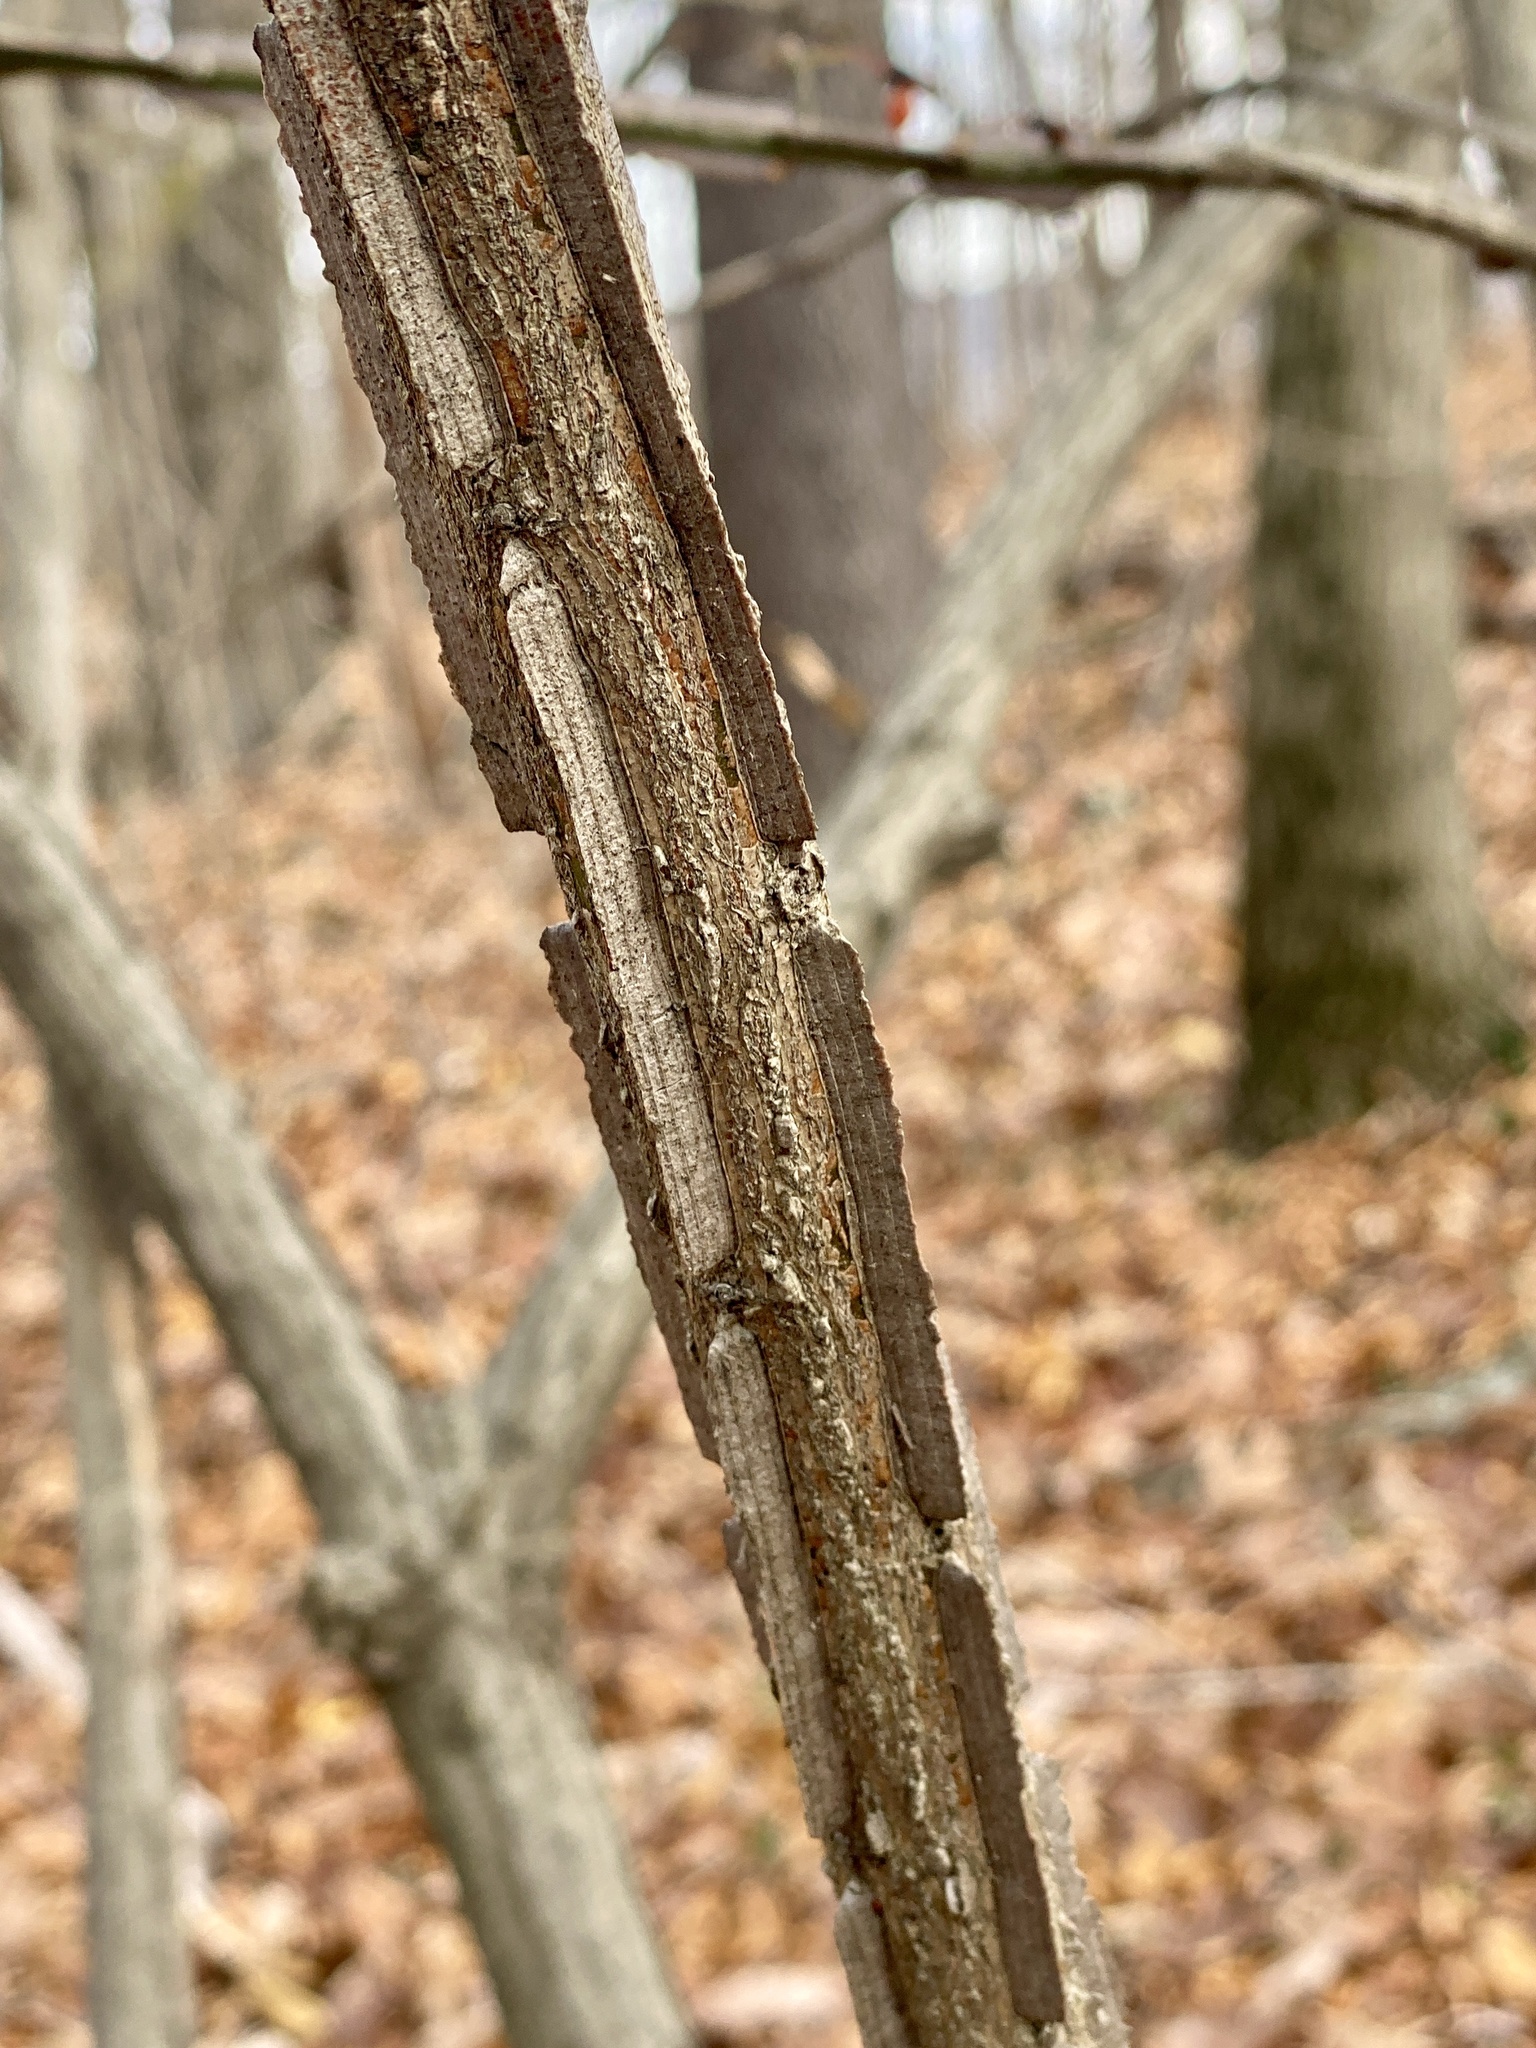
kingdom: Plantae
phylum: Tracheophyta
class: Magnoliopsida
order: Celastrales
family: Celastraceae
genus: Euonymus
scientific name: Euonymus alatus
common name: Winged euonymus
